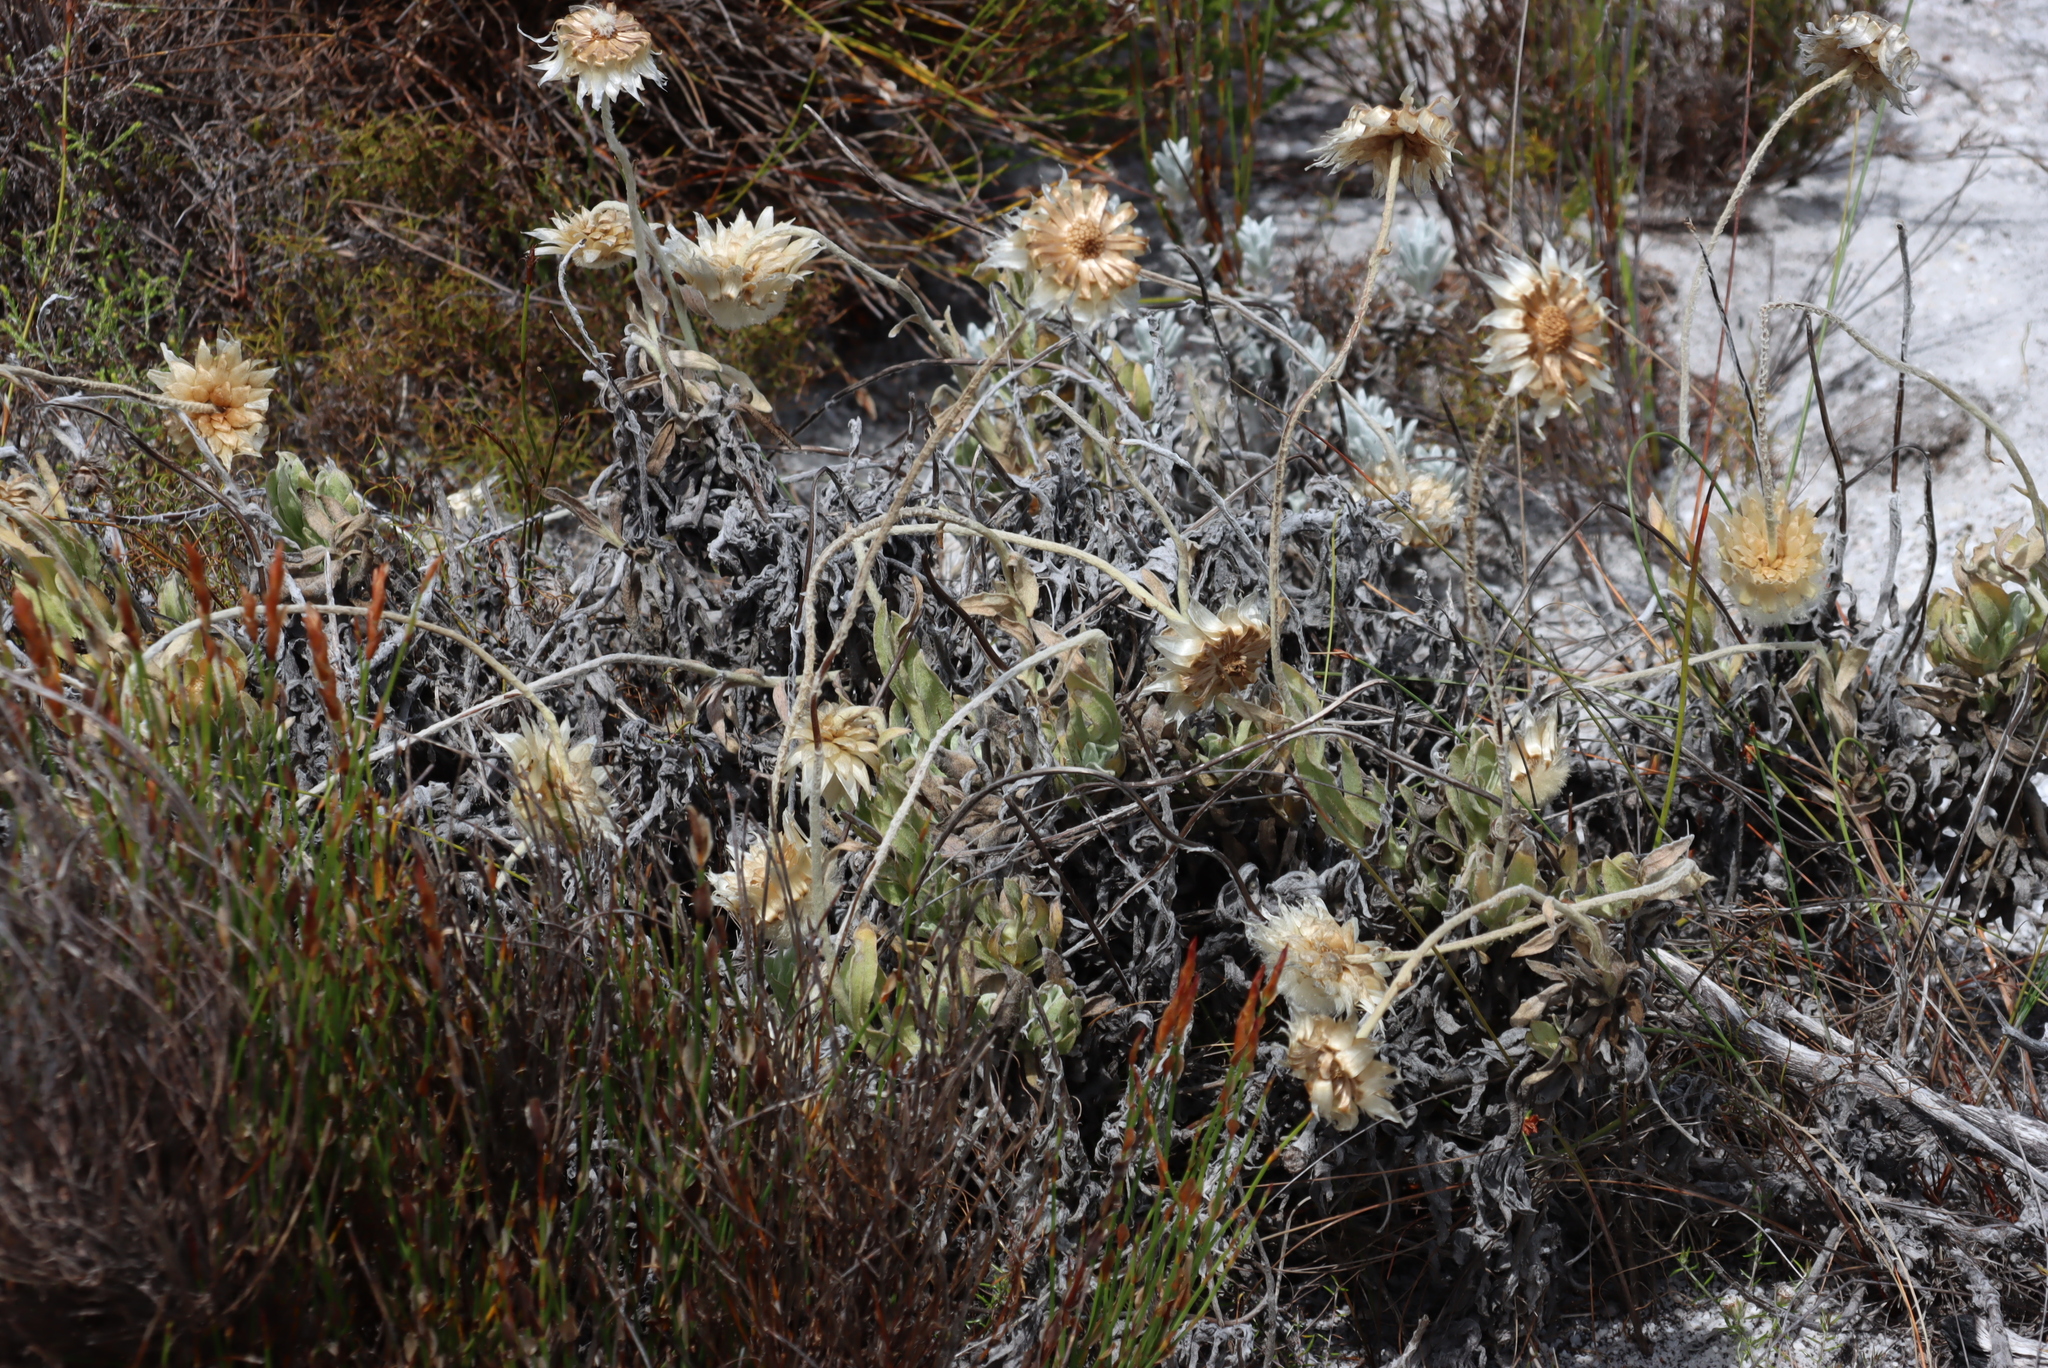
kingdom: Plantae
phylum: Tracheophyta
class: Magnoliopsida
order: Asterales
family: Asteraceae
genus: Syncarpha
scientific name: Syncarpha speciosissima
